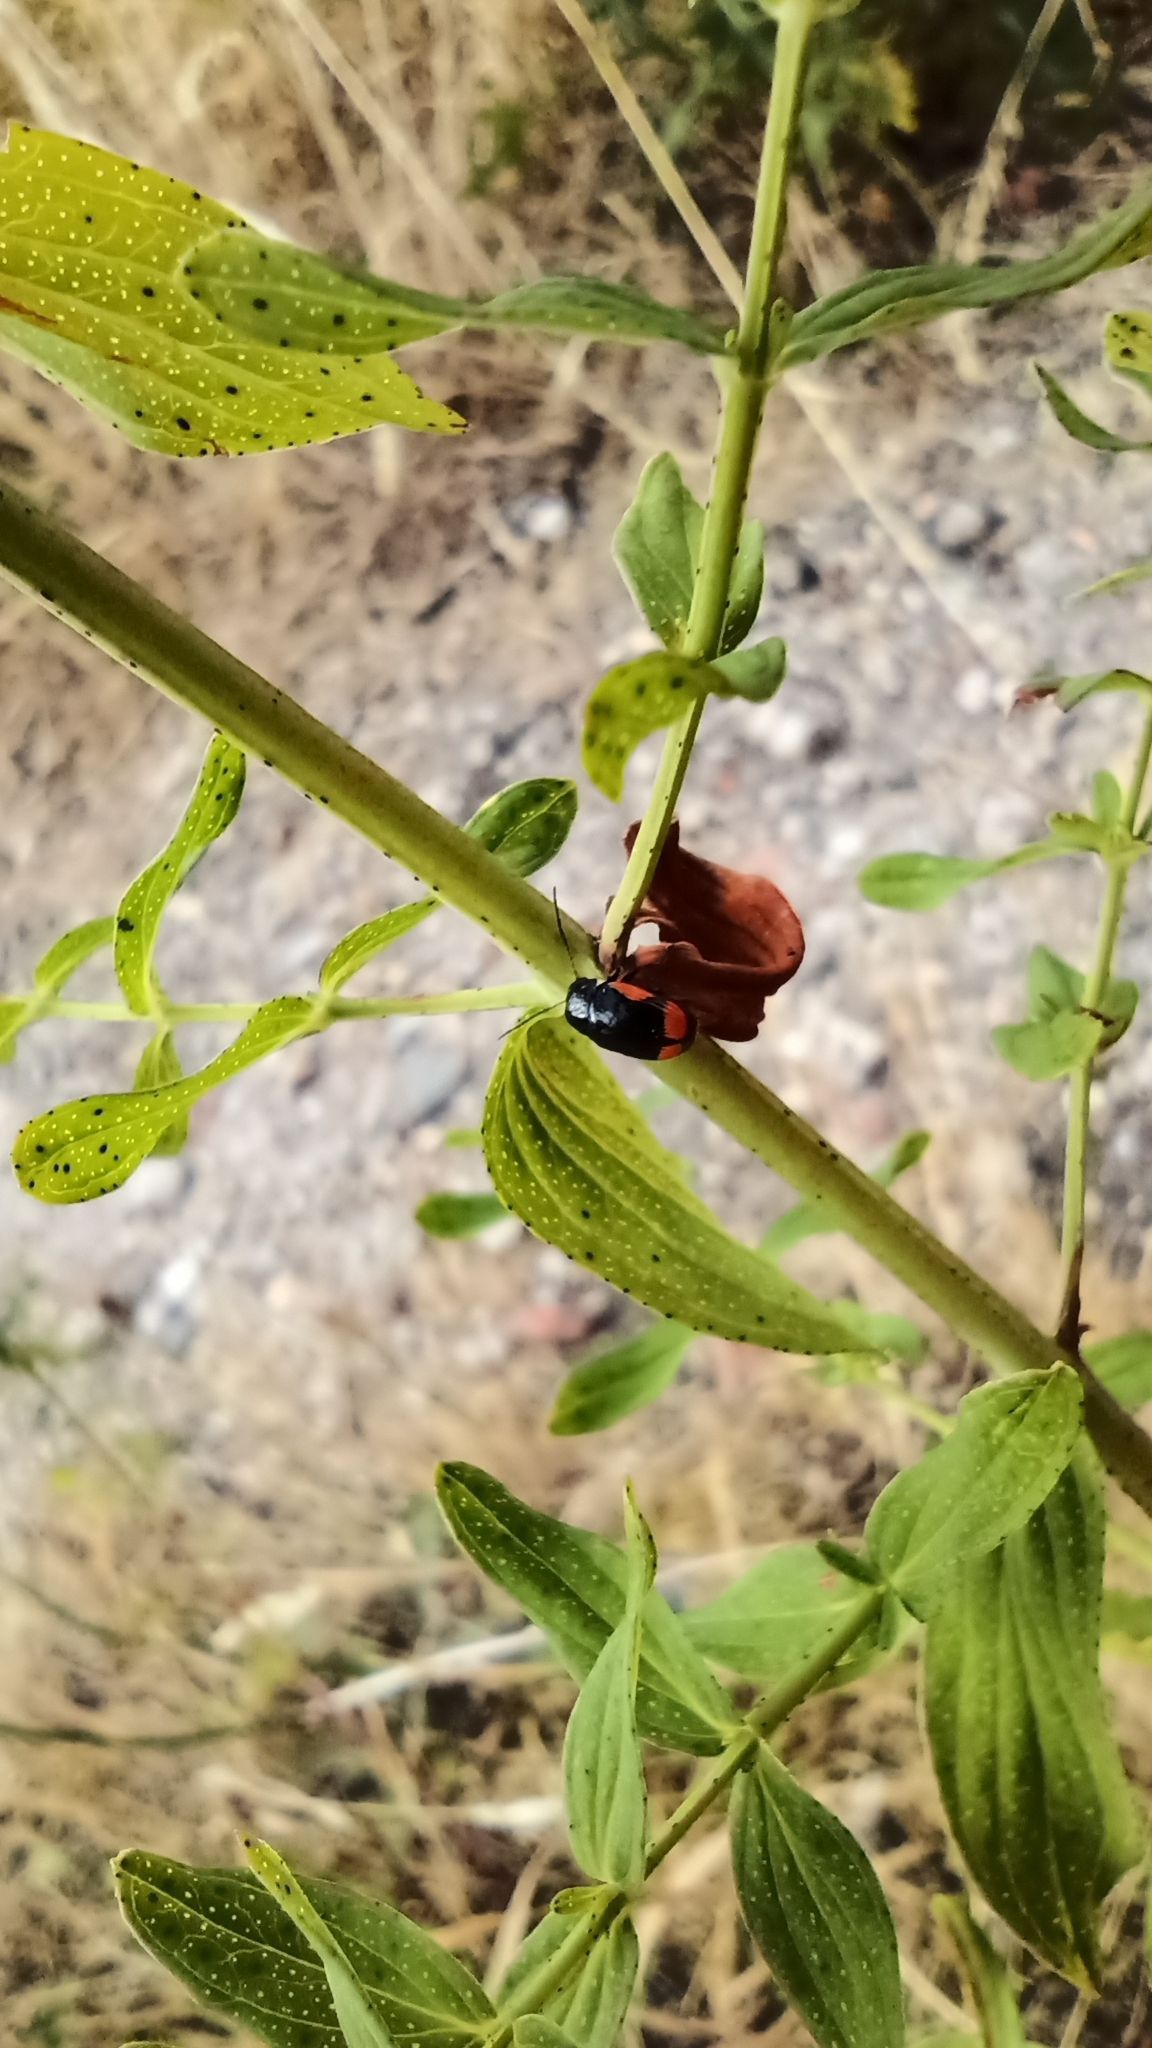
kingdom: Animalia
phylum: Arthropoda
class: Insecta
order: Coleoptera
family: Chrysomelidae
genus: Cryptocephalus
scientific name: Cryptocephalus moraei
